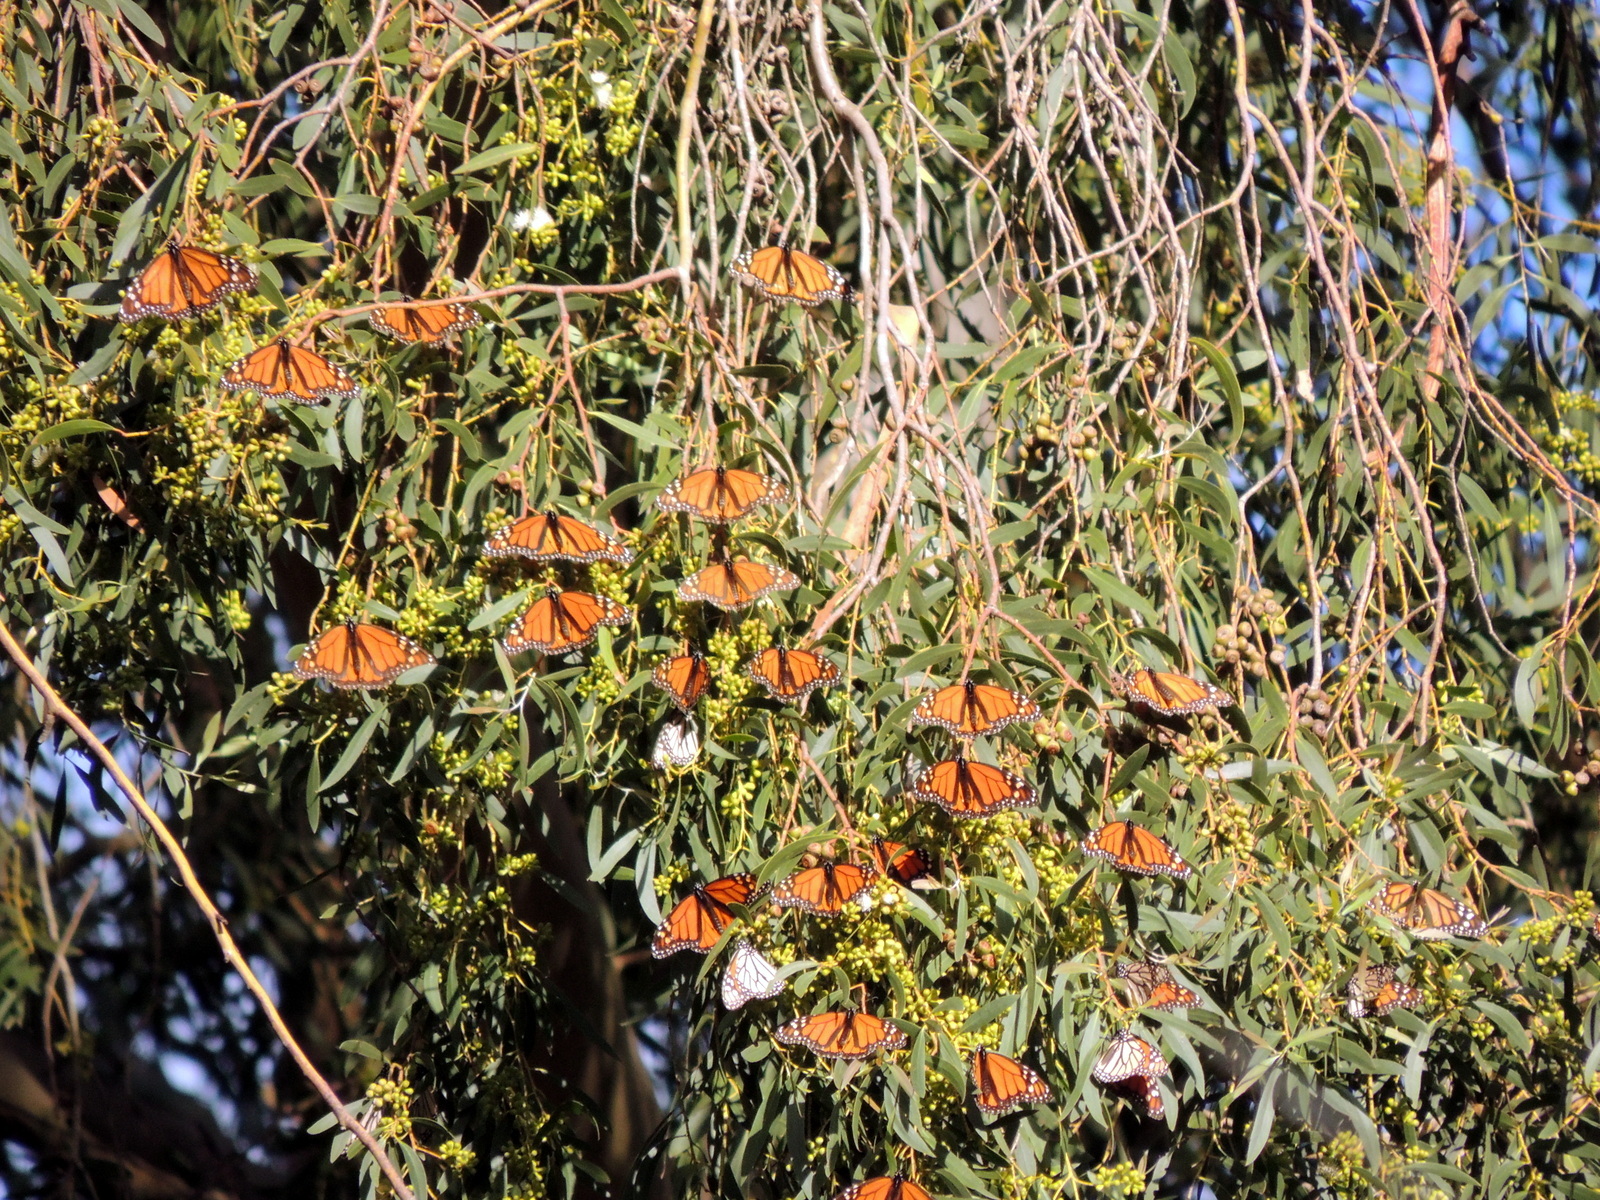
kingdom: Animalia
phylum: Arthropoda
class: Insecta
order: Lepidoptera
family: Nymphalidae
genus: Danaus
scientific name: Danaus plexippus
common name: Monarch
